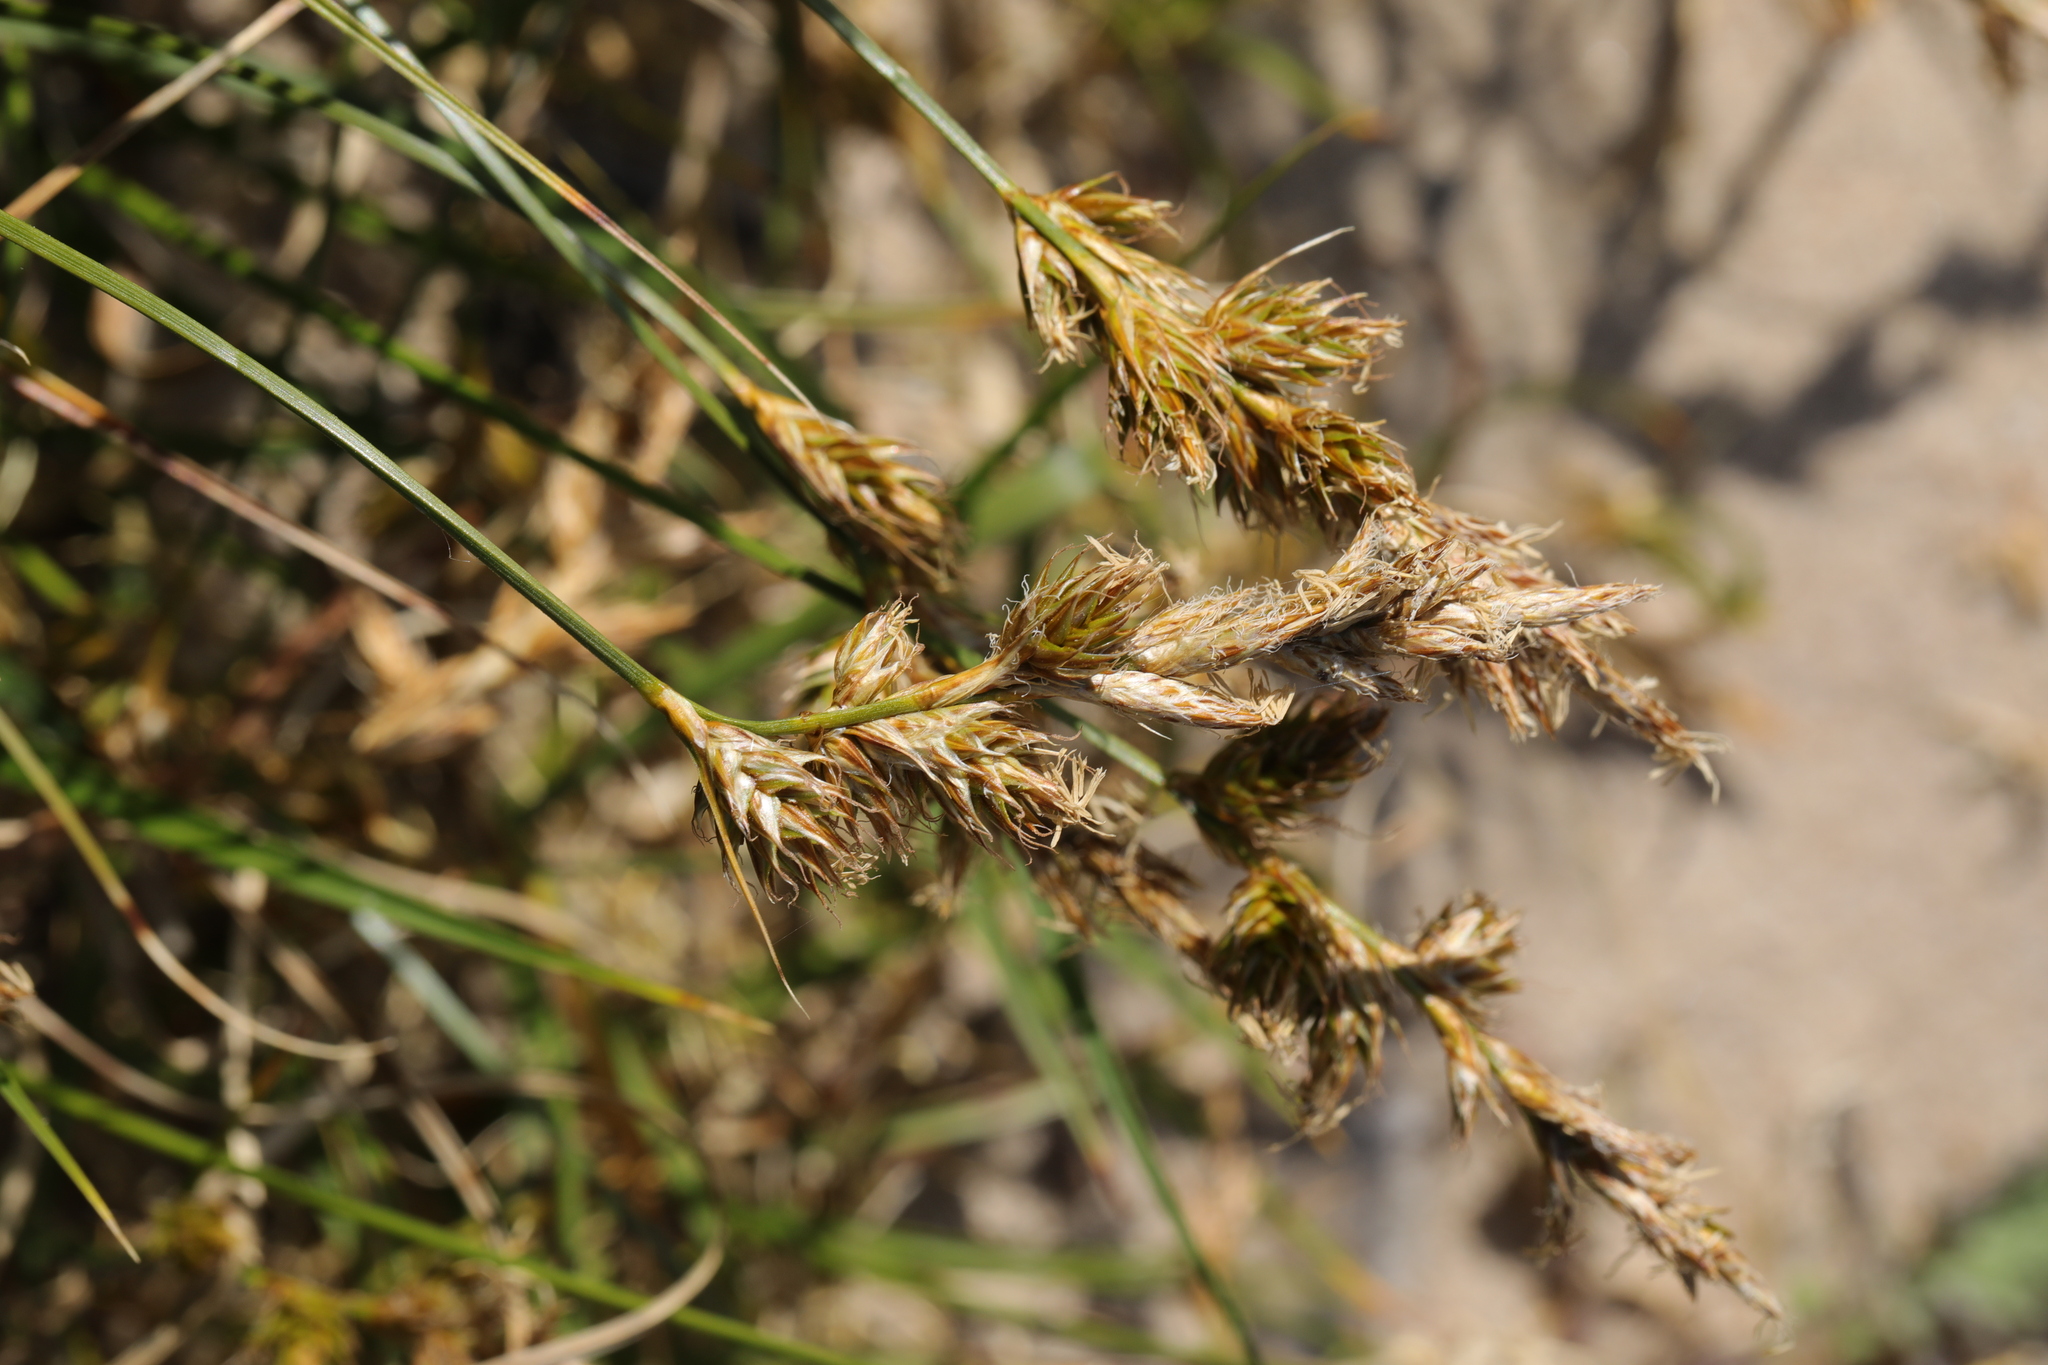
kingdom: Plantae
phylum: Tracheophyta
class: Liliopsida
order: Poales
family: Cyperaceae
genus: Carex
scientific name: Carex arenaria
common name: Sand sedge
